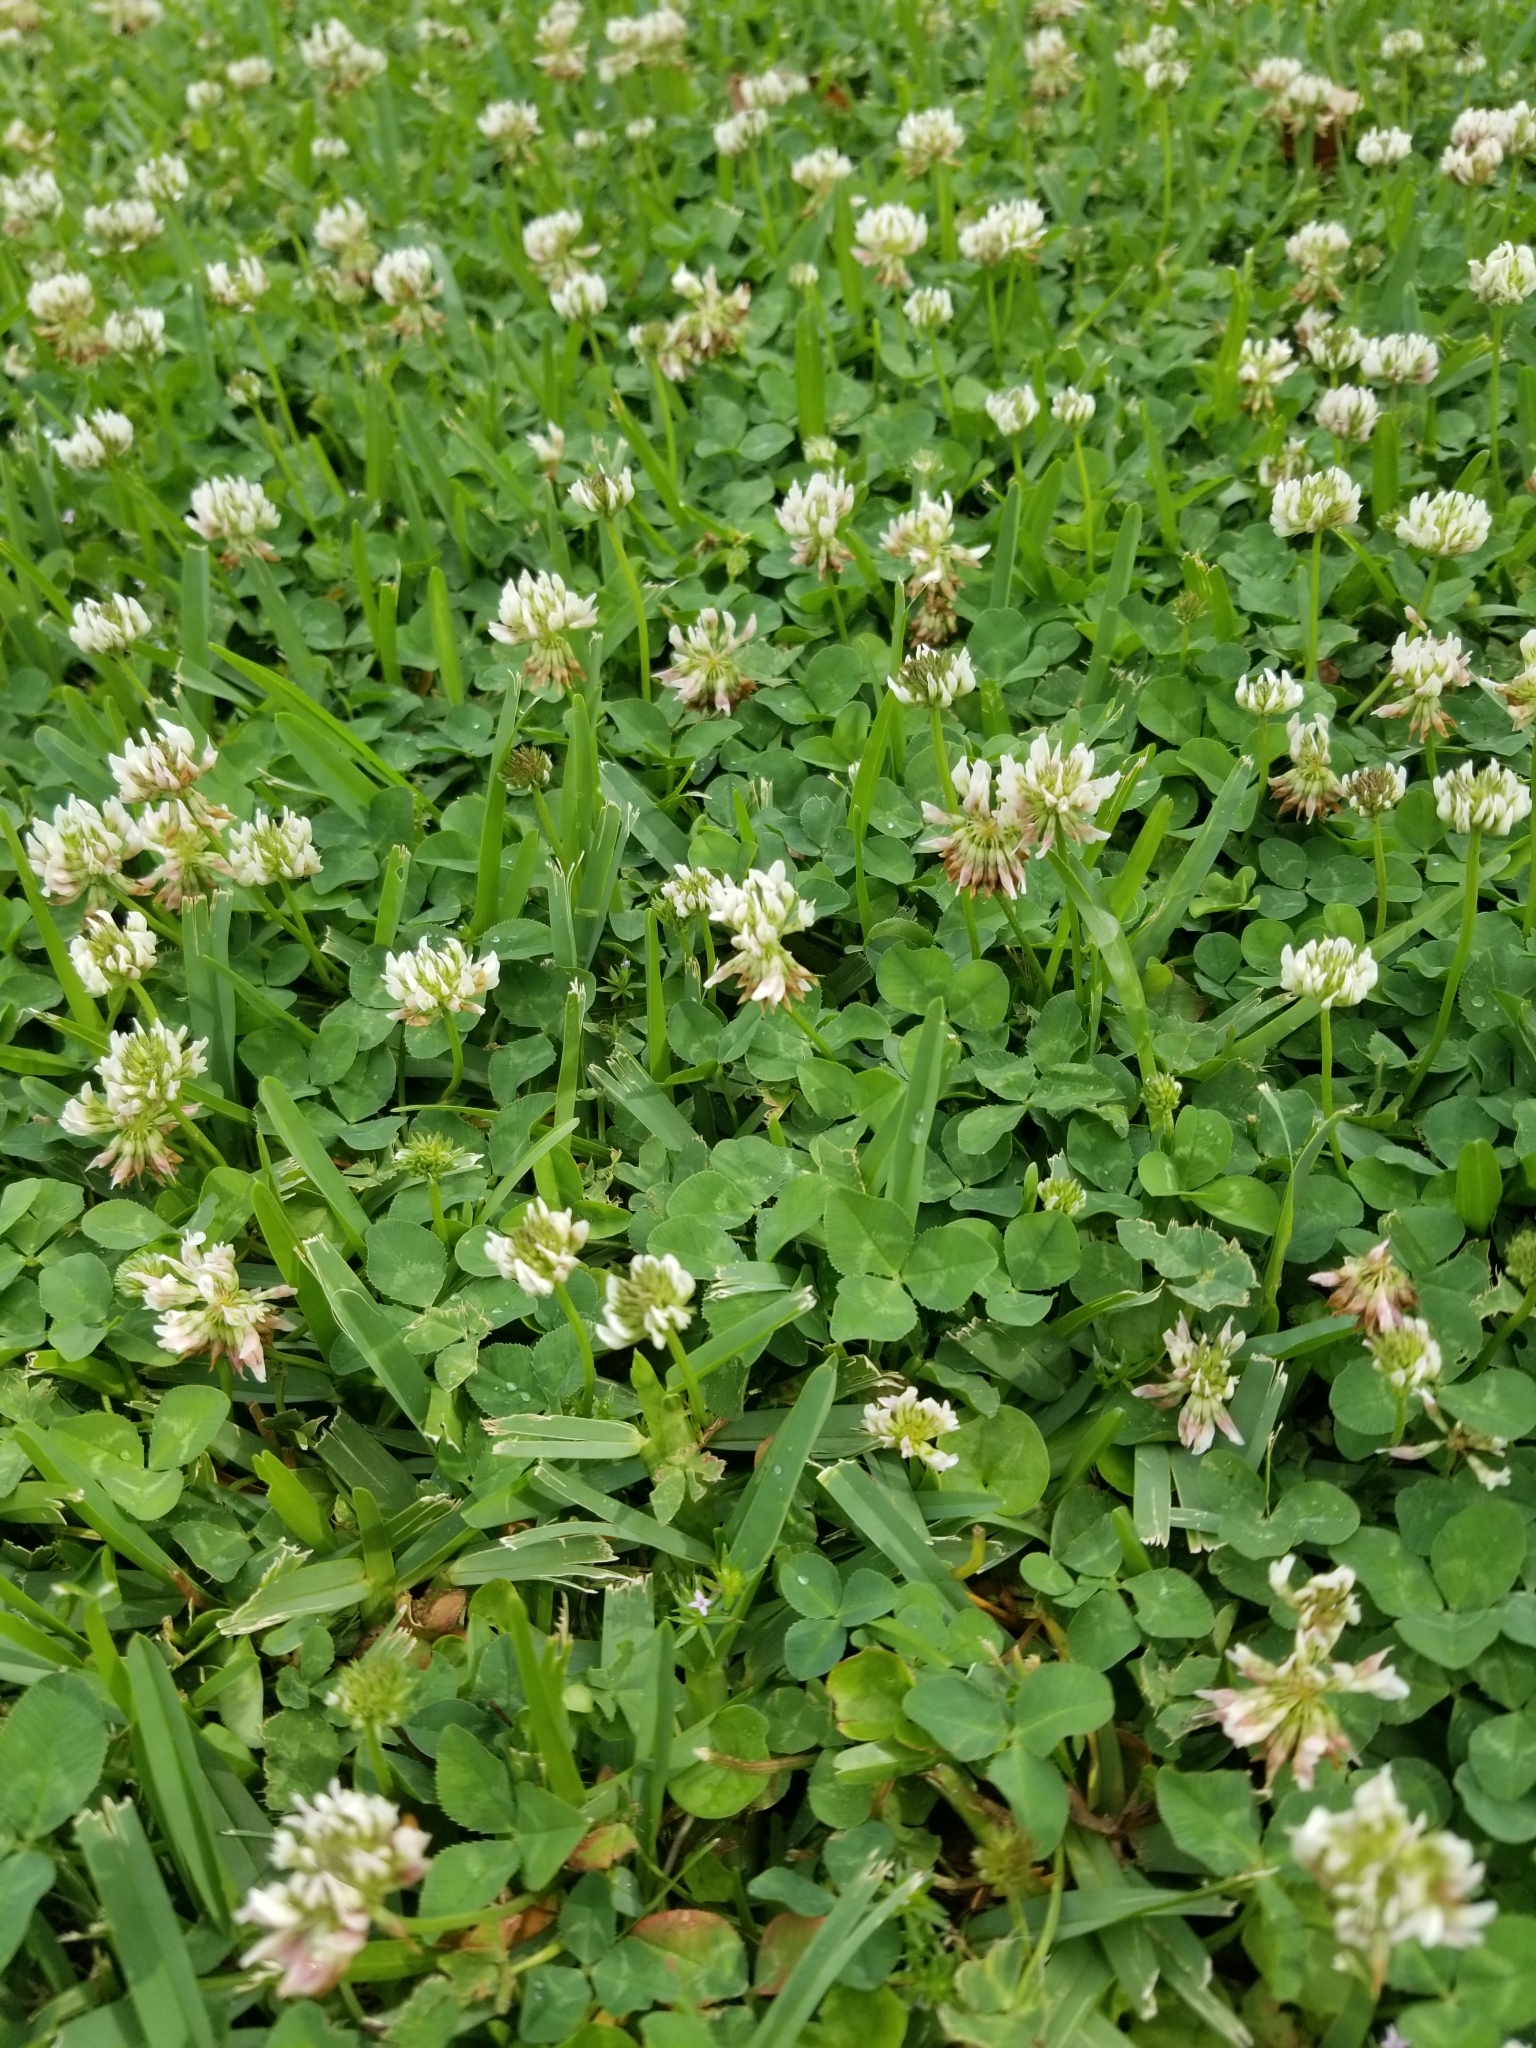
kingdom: Plantae
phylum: Tracheophyta
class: Magnoliopsida
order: Fabales
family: Fabaceae
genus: Trifolium
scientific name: Trifolium repens
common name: White clover
